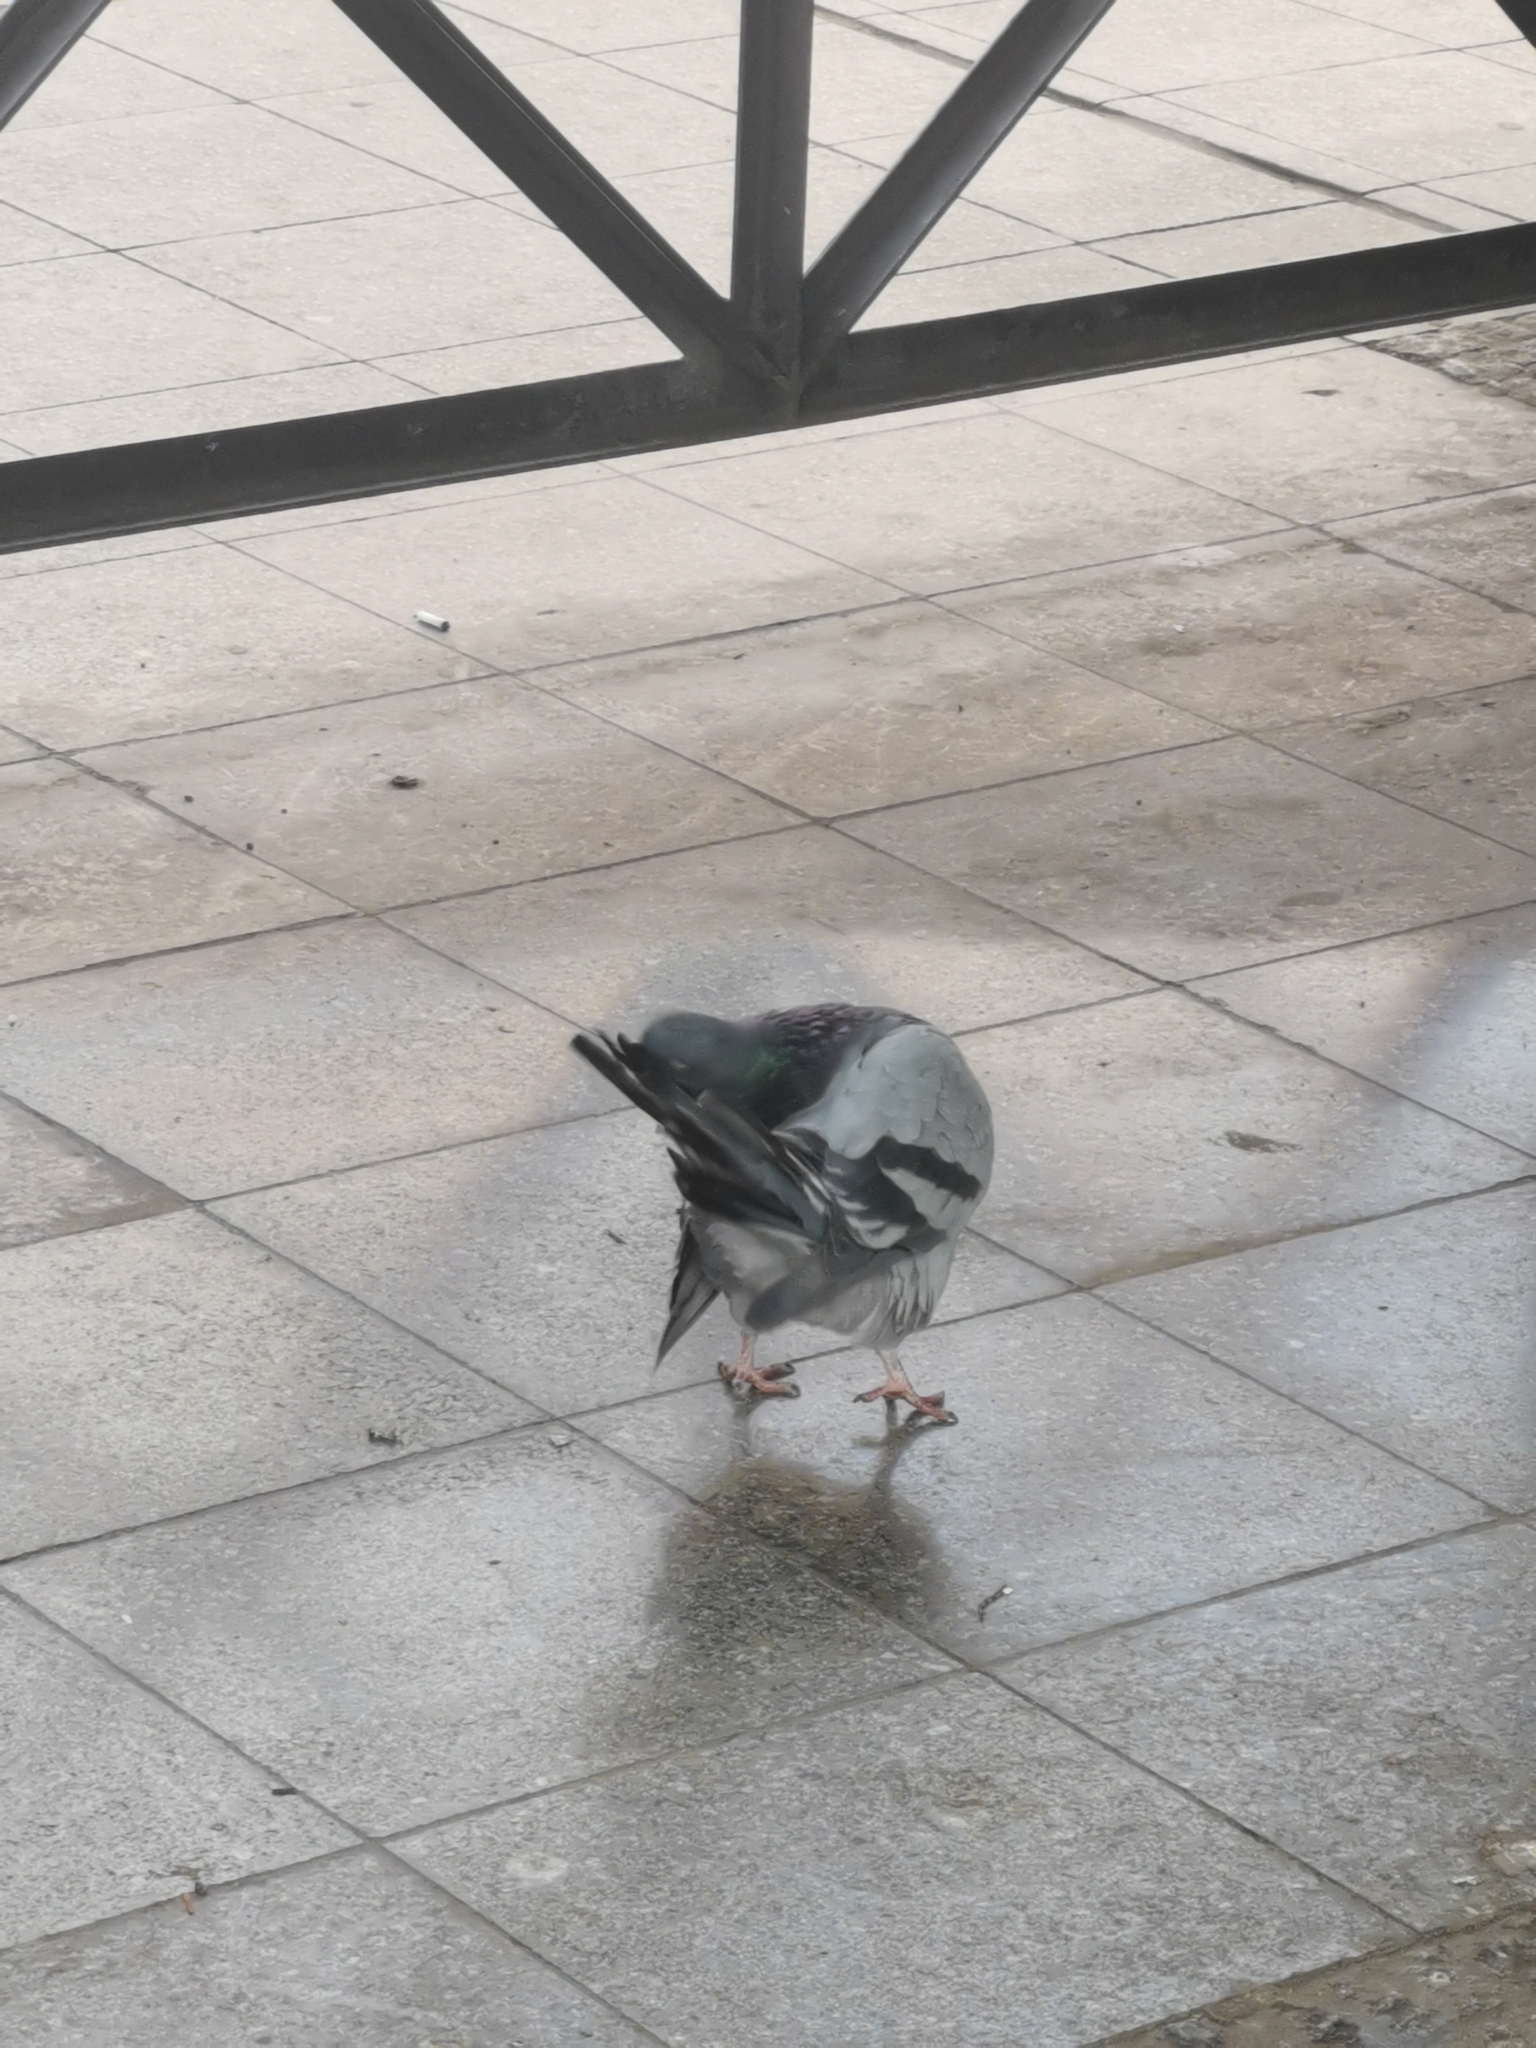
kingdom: Animalia
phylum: Chordata
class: Aves
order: Columbiformes
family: Columbidae
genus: Columba
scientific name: Columba livia
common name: Rock pigeon
